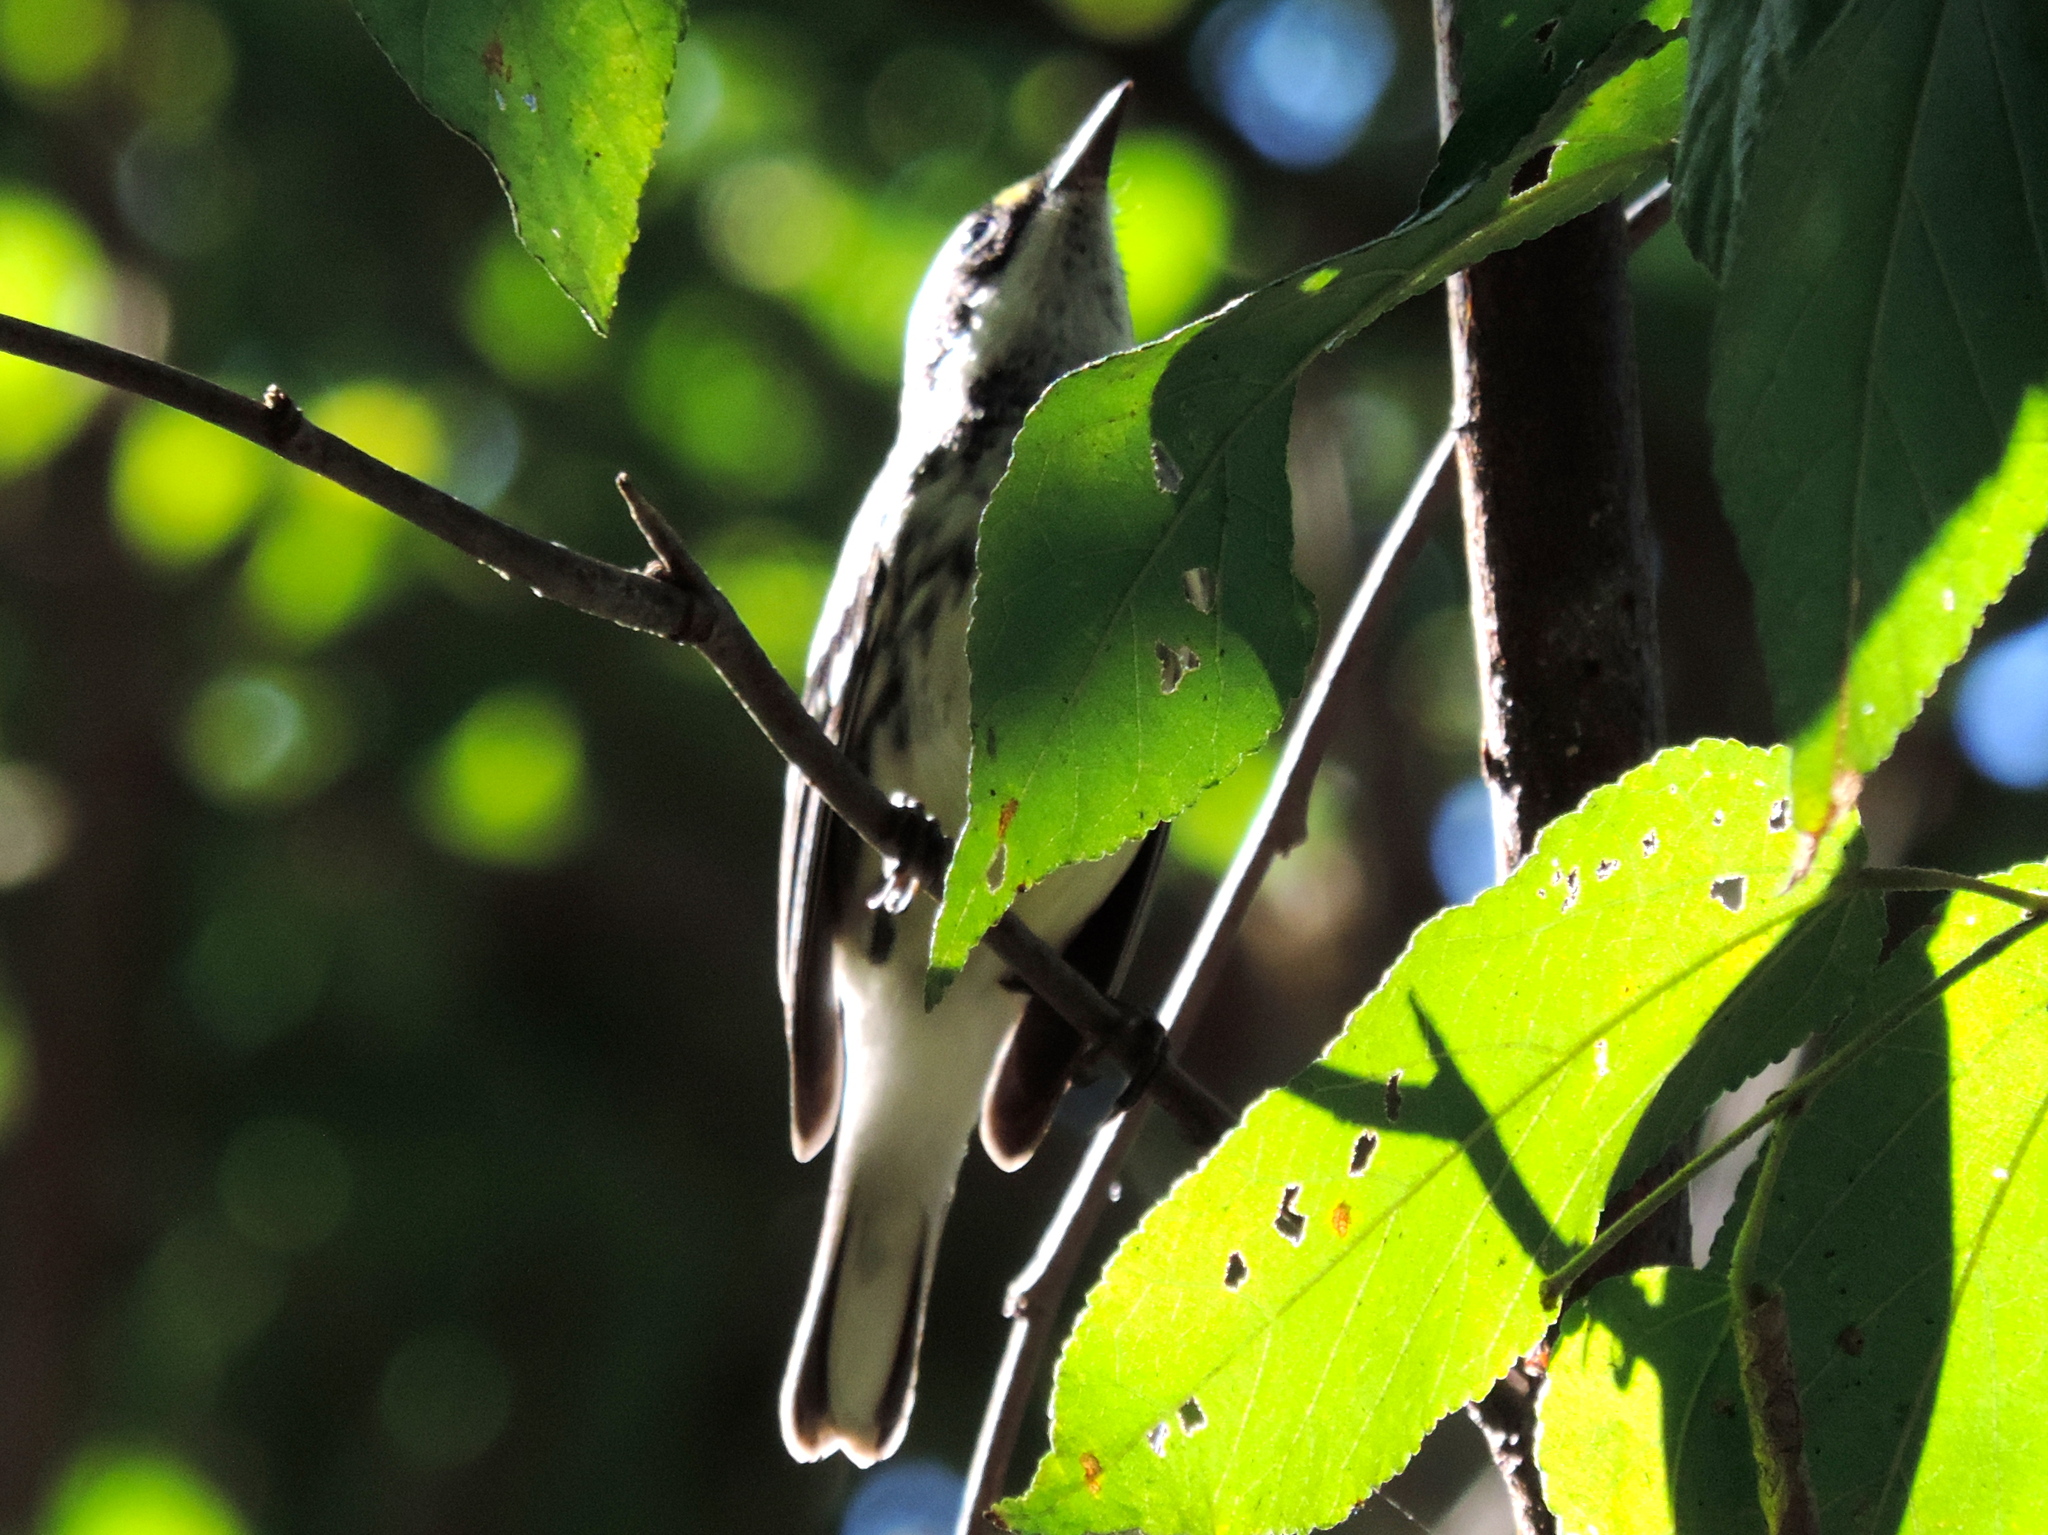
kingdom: Animalia
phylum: Chordata
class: Aves
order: Passeriformes
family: Parulidae
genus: Setophaga
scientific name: Setophaga nigrescens
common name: Black-throated gray warbler
